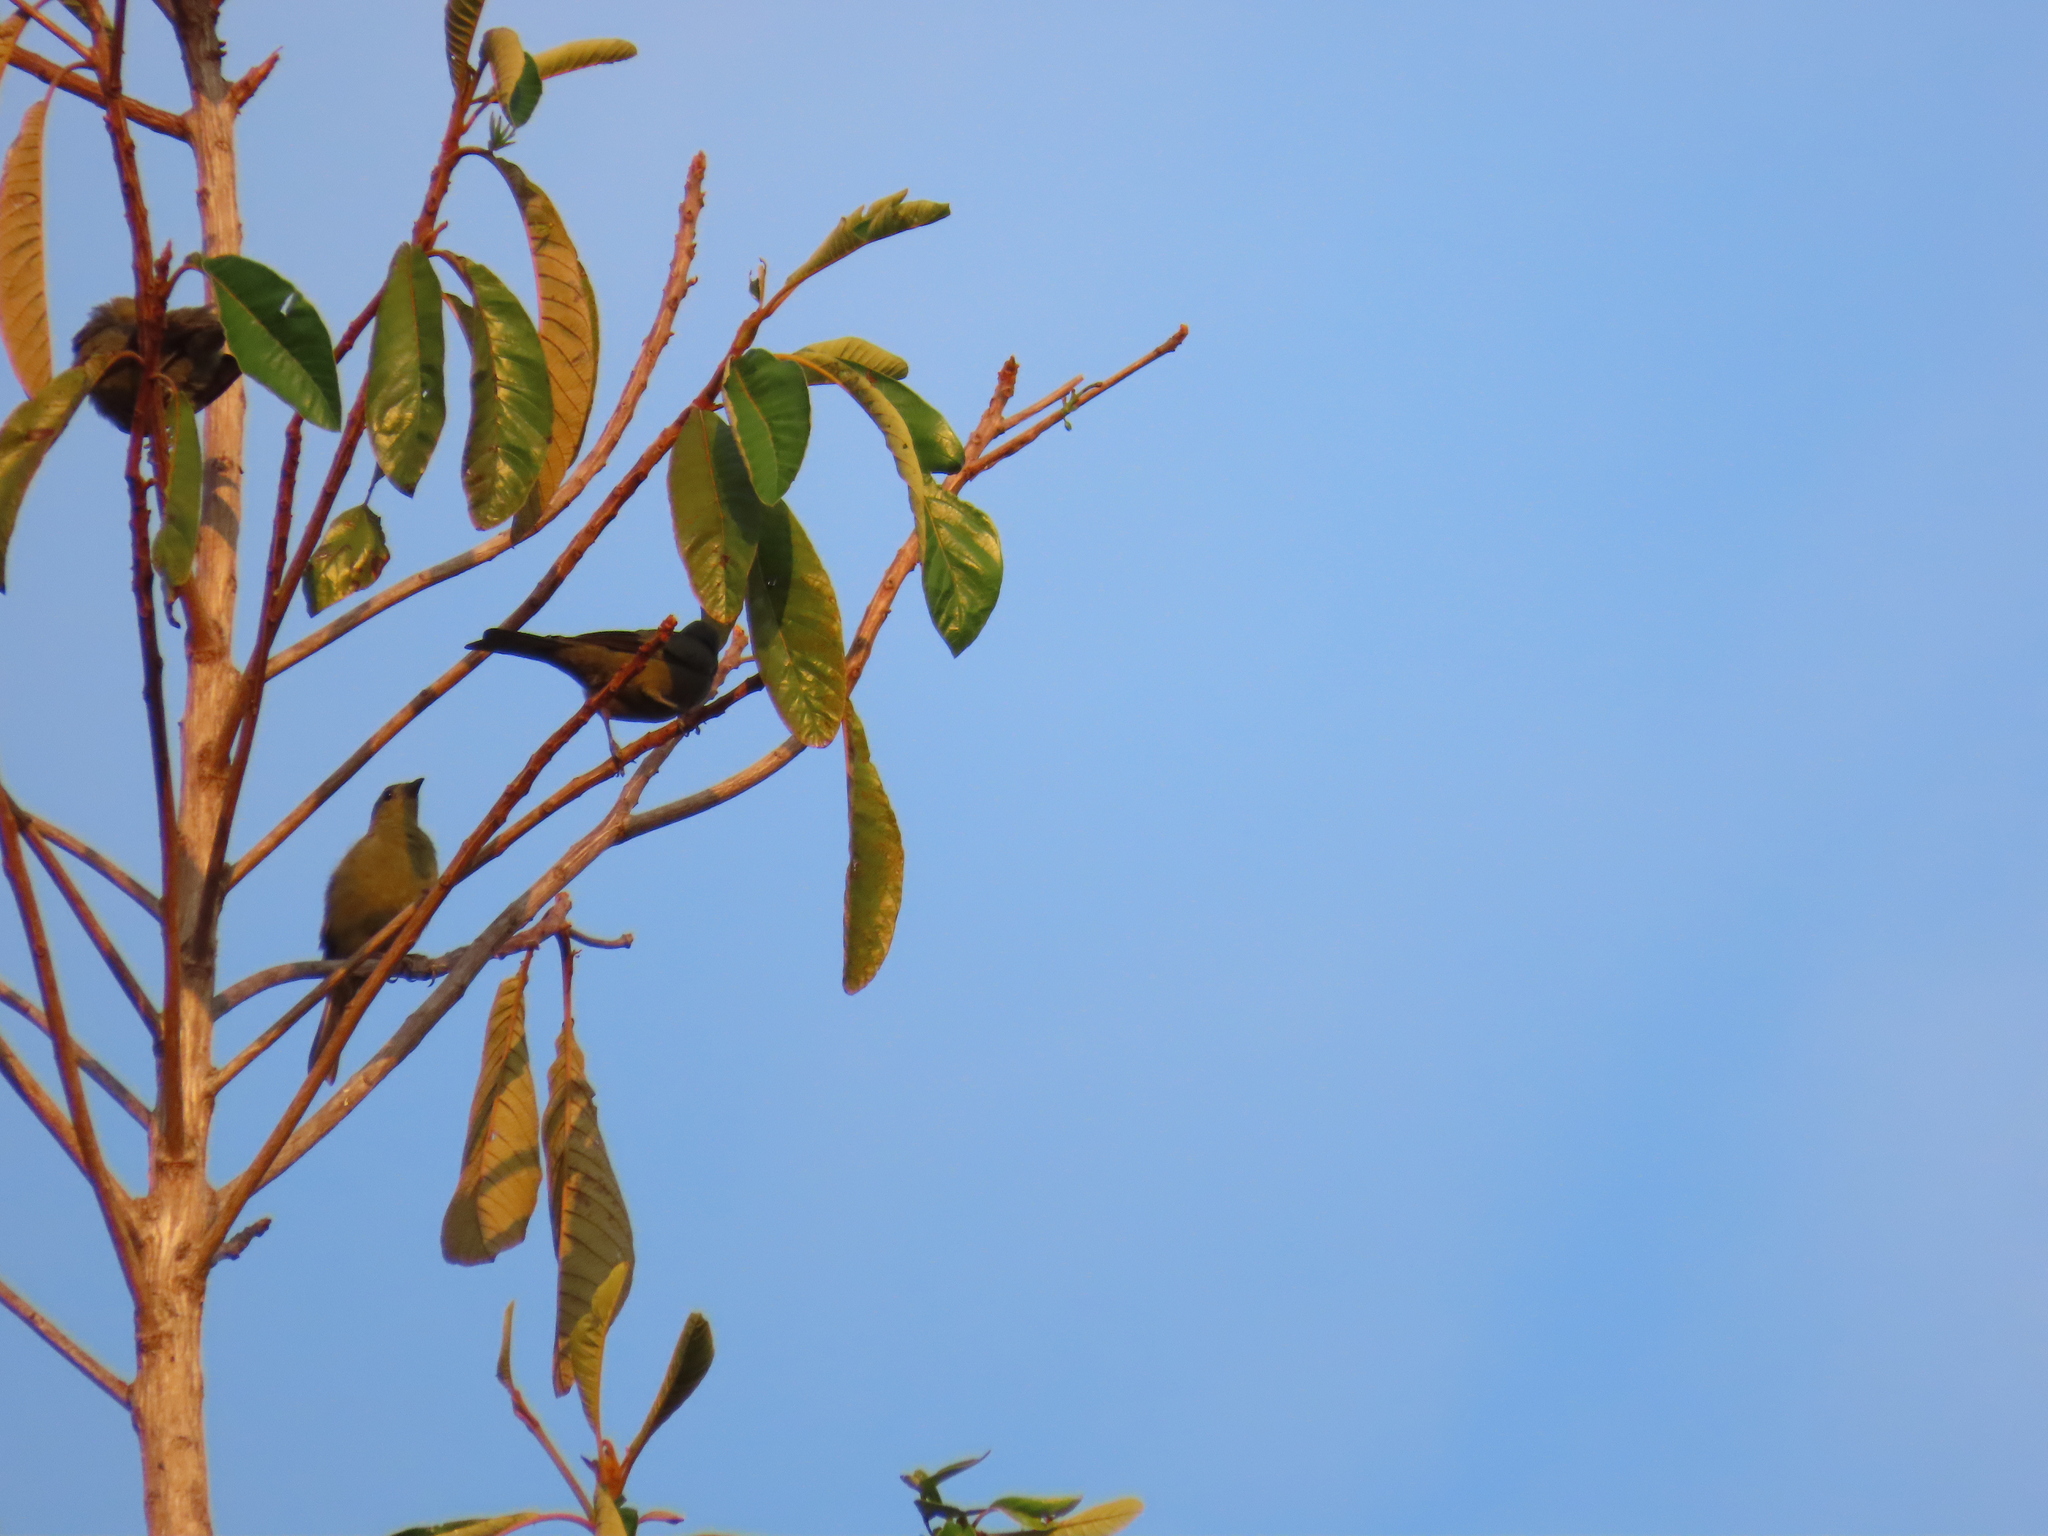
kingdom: Animalia
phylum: Chordata
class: Aves
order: Passeriformes
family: Thraupidae
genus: Thraupis
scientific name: Thraupis palmarum
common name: Palm tanager
